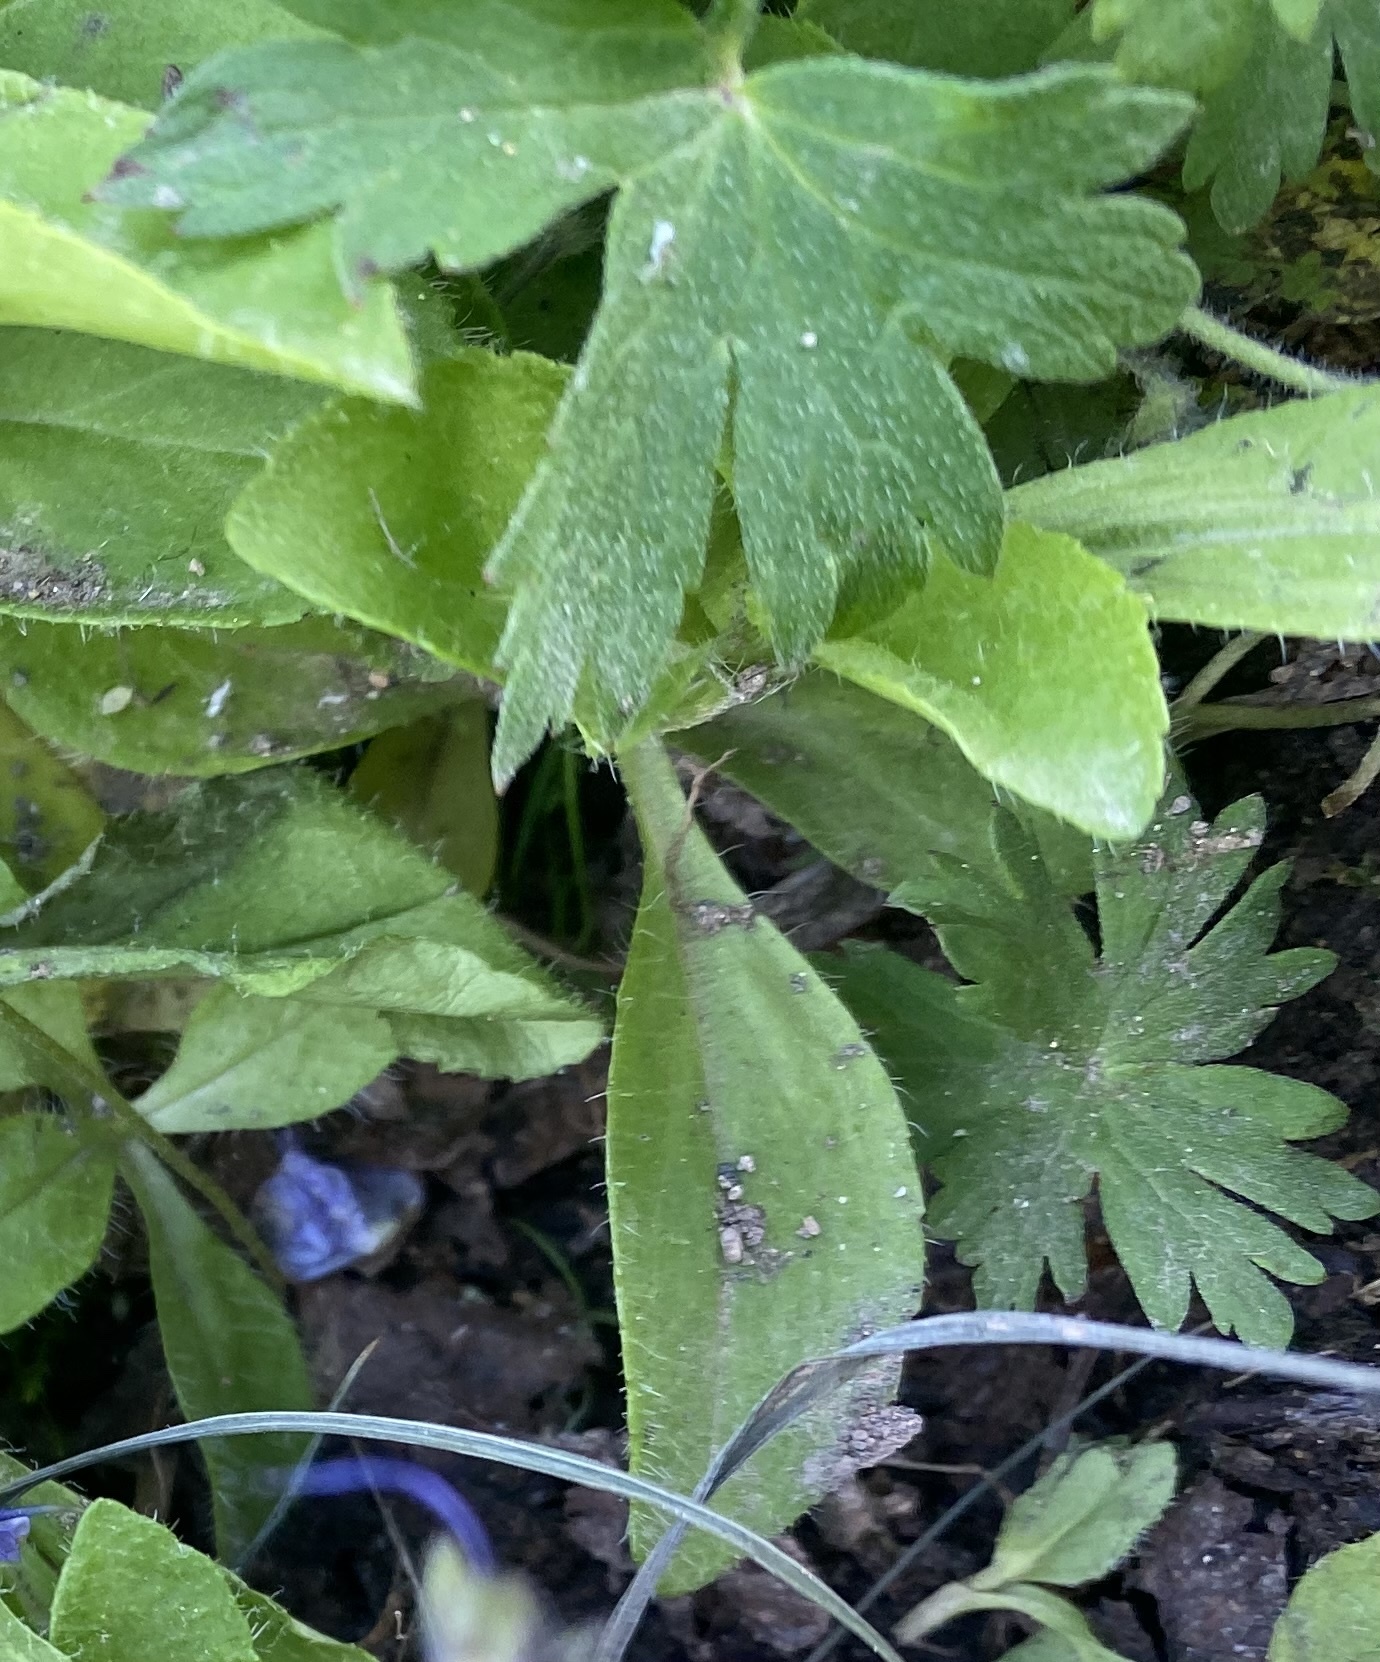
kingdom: Plantae
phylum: Tracheophyta
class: Magnoliopsida
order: Geraniales
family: Geraniaceae
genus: Geranium
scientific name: Geranium erianthum
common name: Northern crane's-bill
